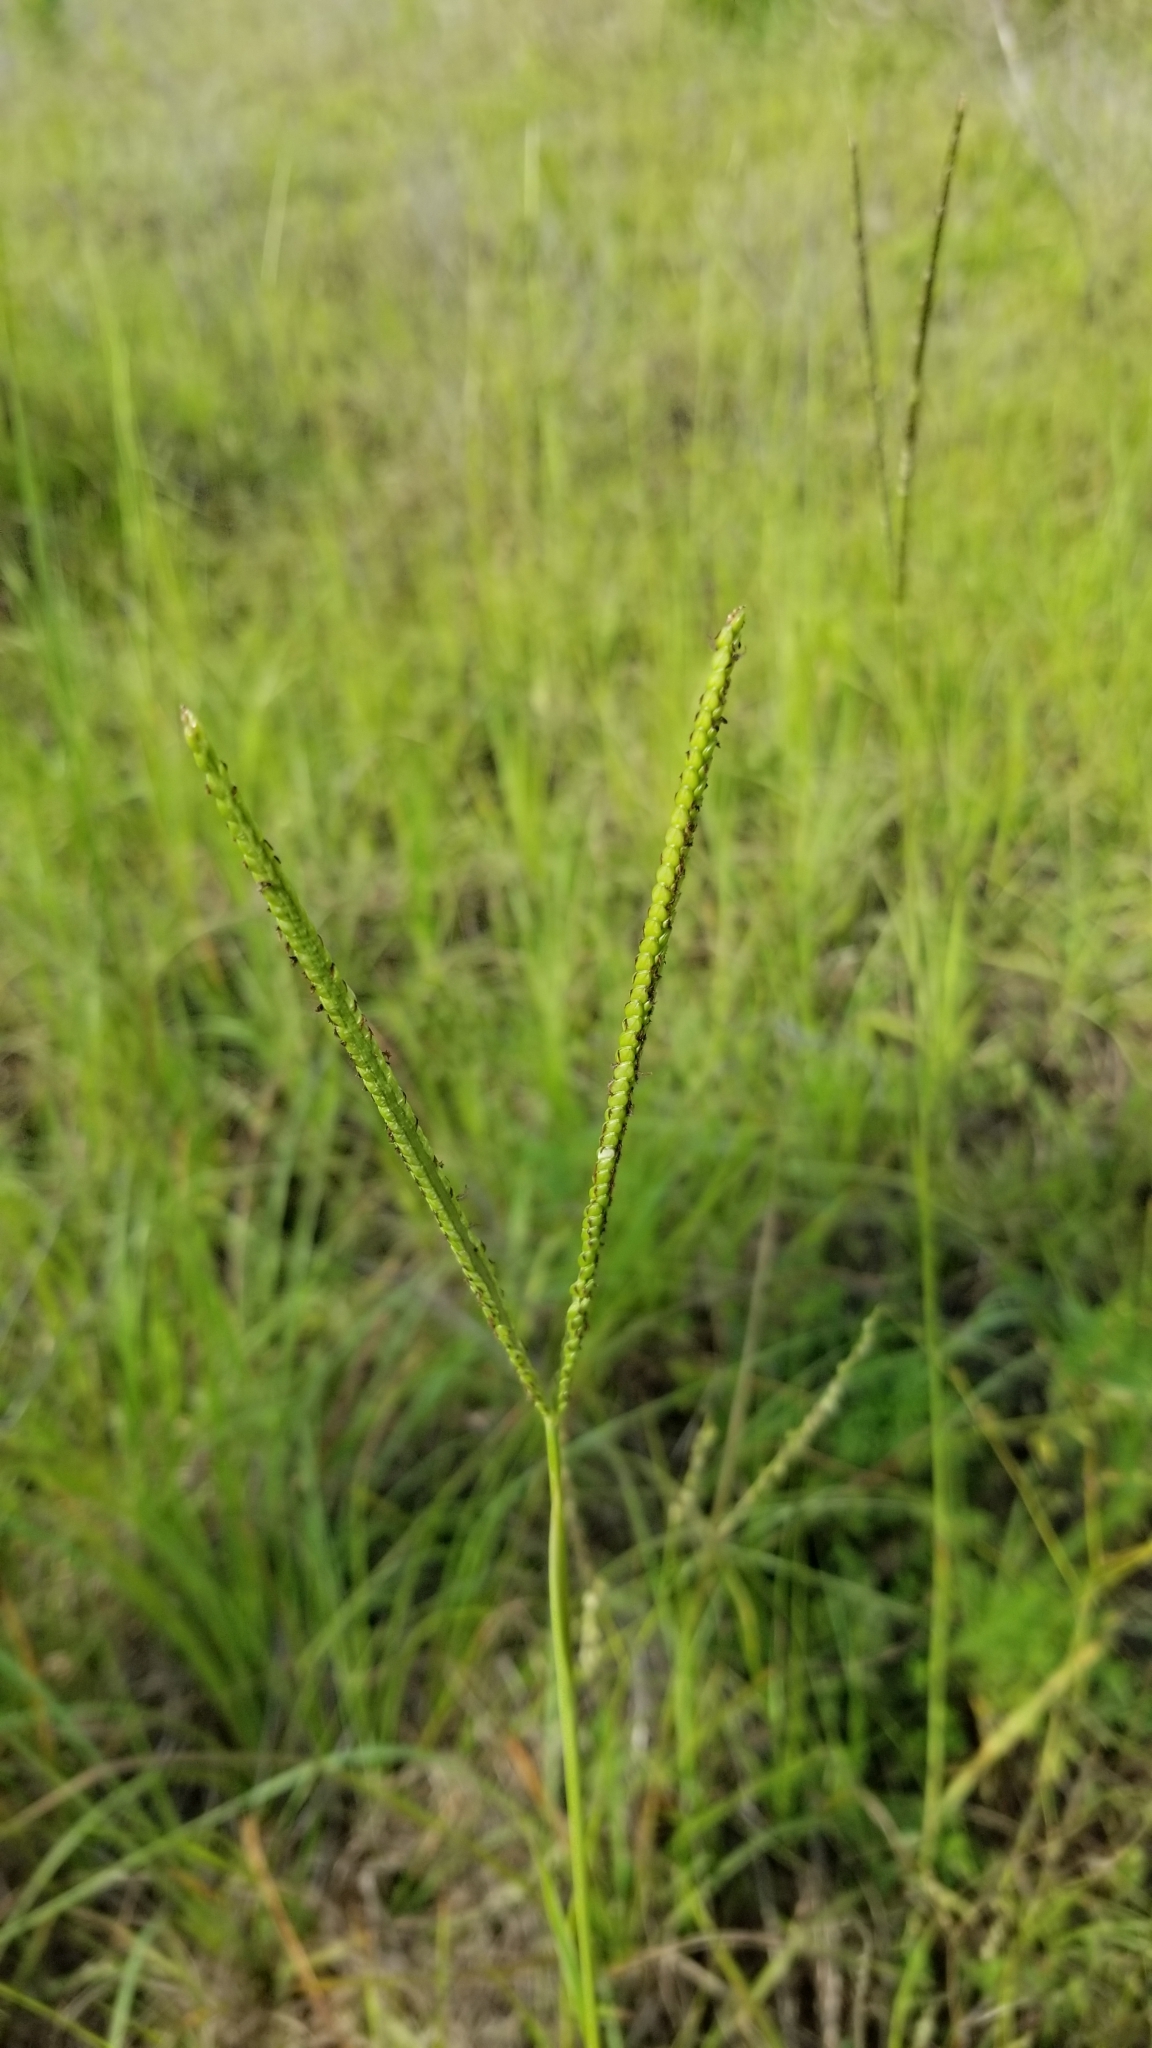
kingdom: Plantae
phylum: Tracheophyta
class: Liliopsida
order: Poales
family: Poaceae
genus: Paspalum
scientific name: Paspalum notatum
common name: Bahiagrass
